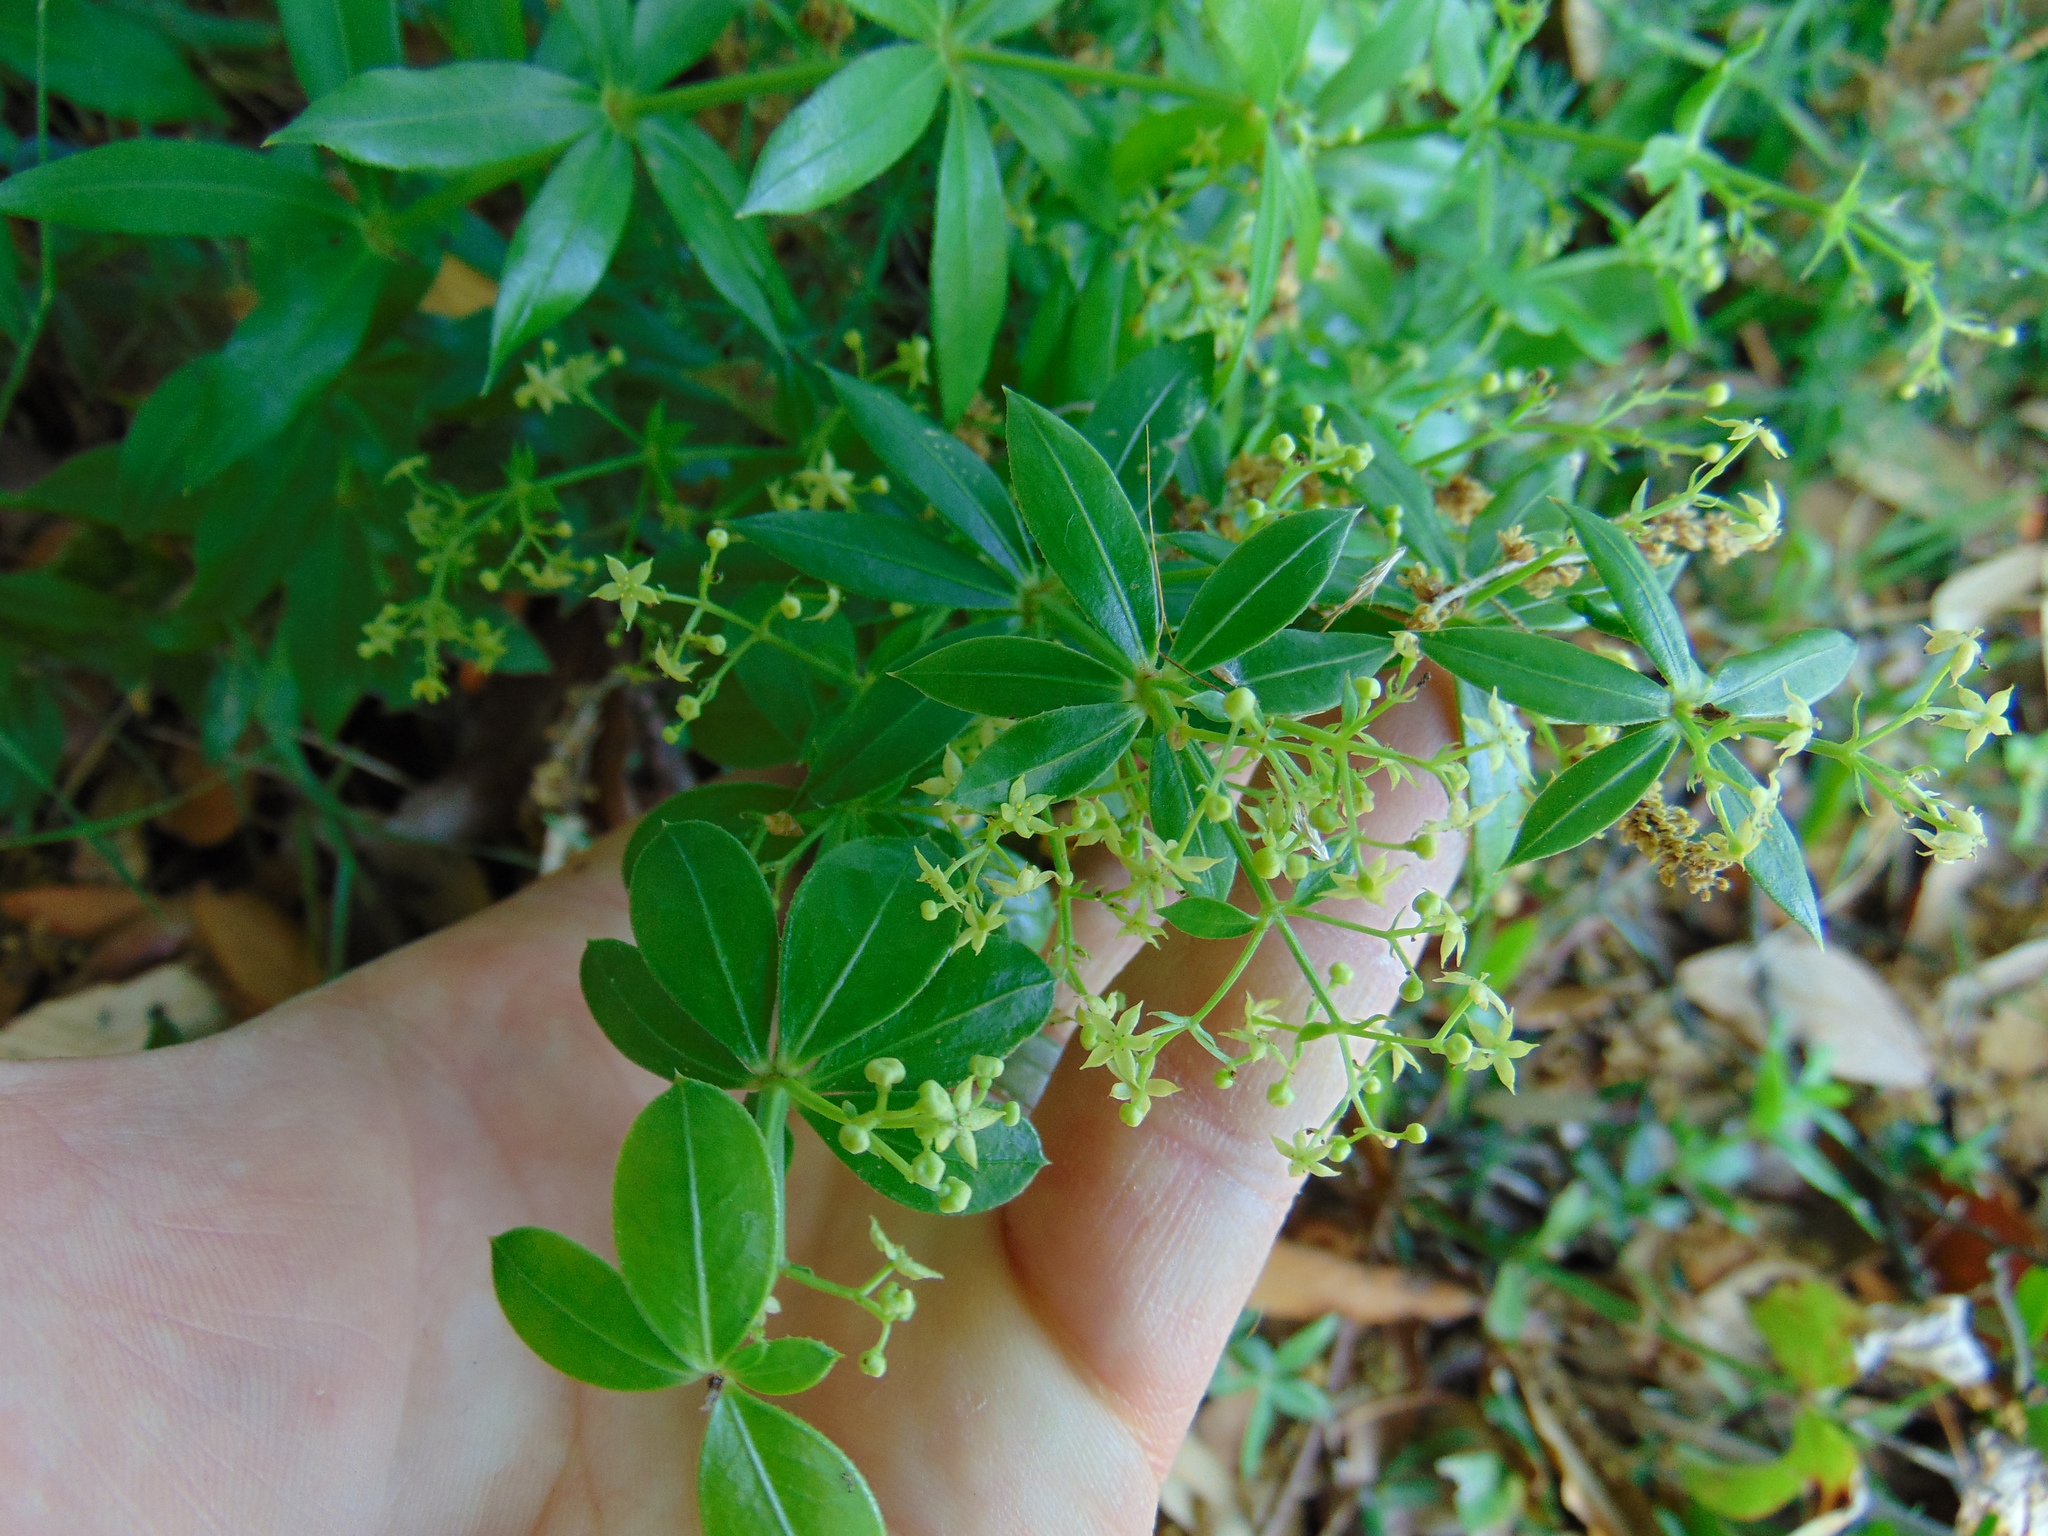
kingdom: Plantae
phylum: Tracheophyta
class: Magnoliopsida
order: Gentianales
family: Rubiaceae
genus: Rubia
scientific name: Rubia peregrina
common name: Wild madder
